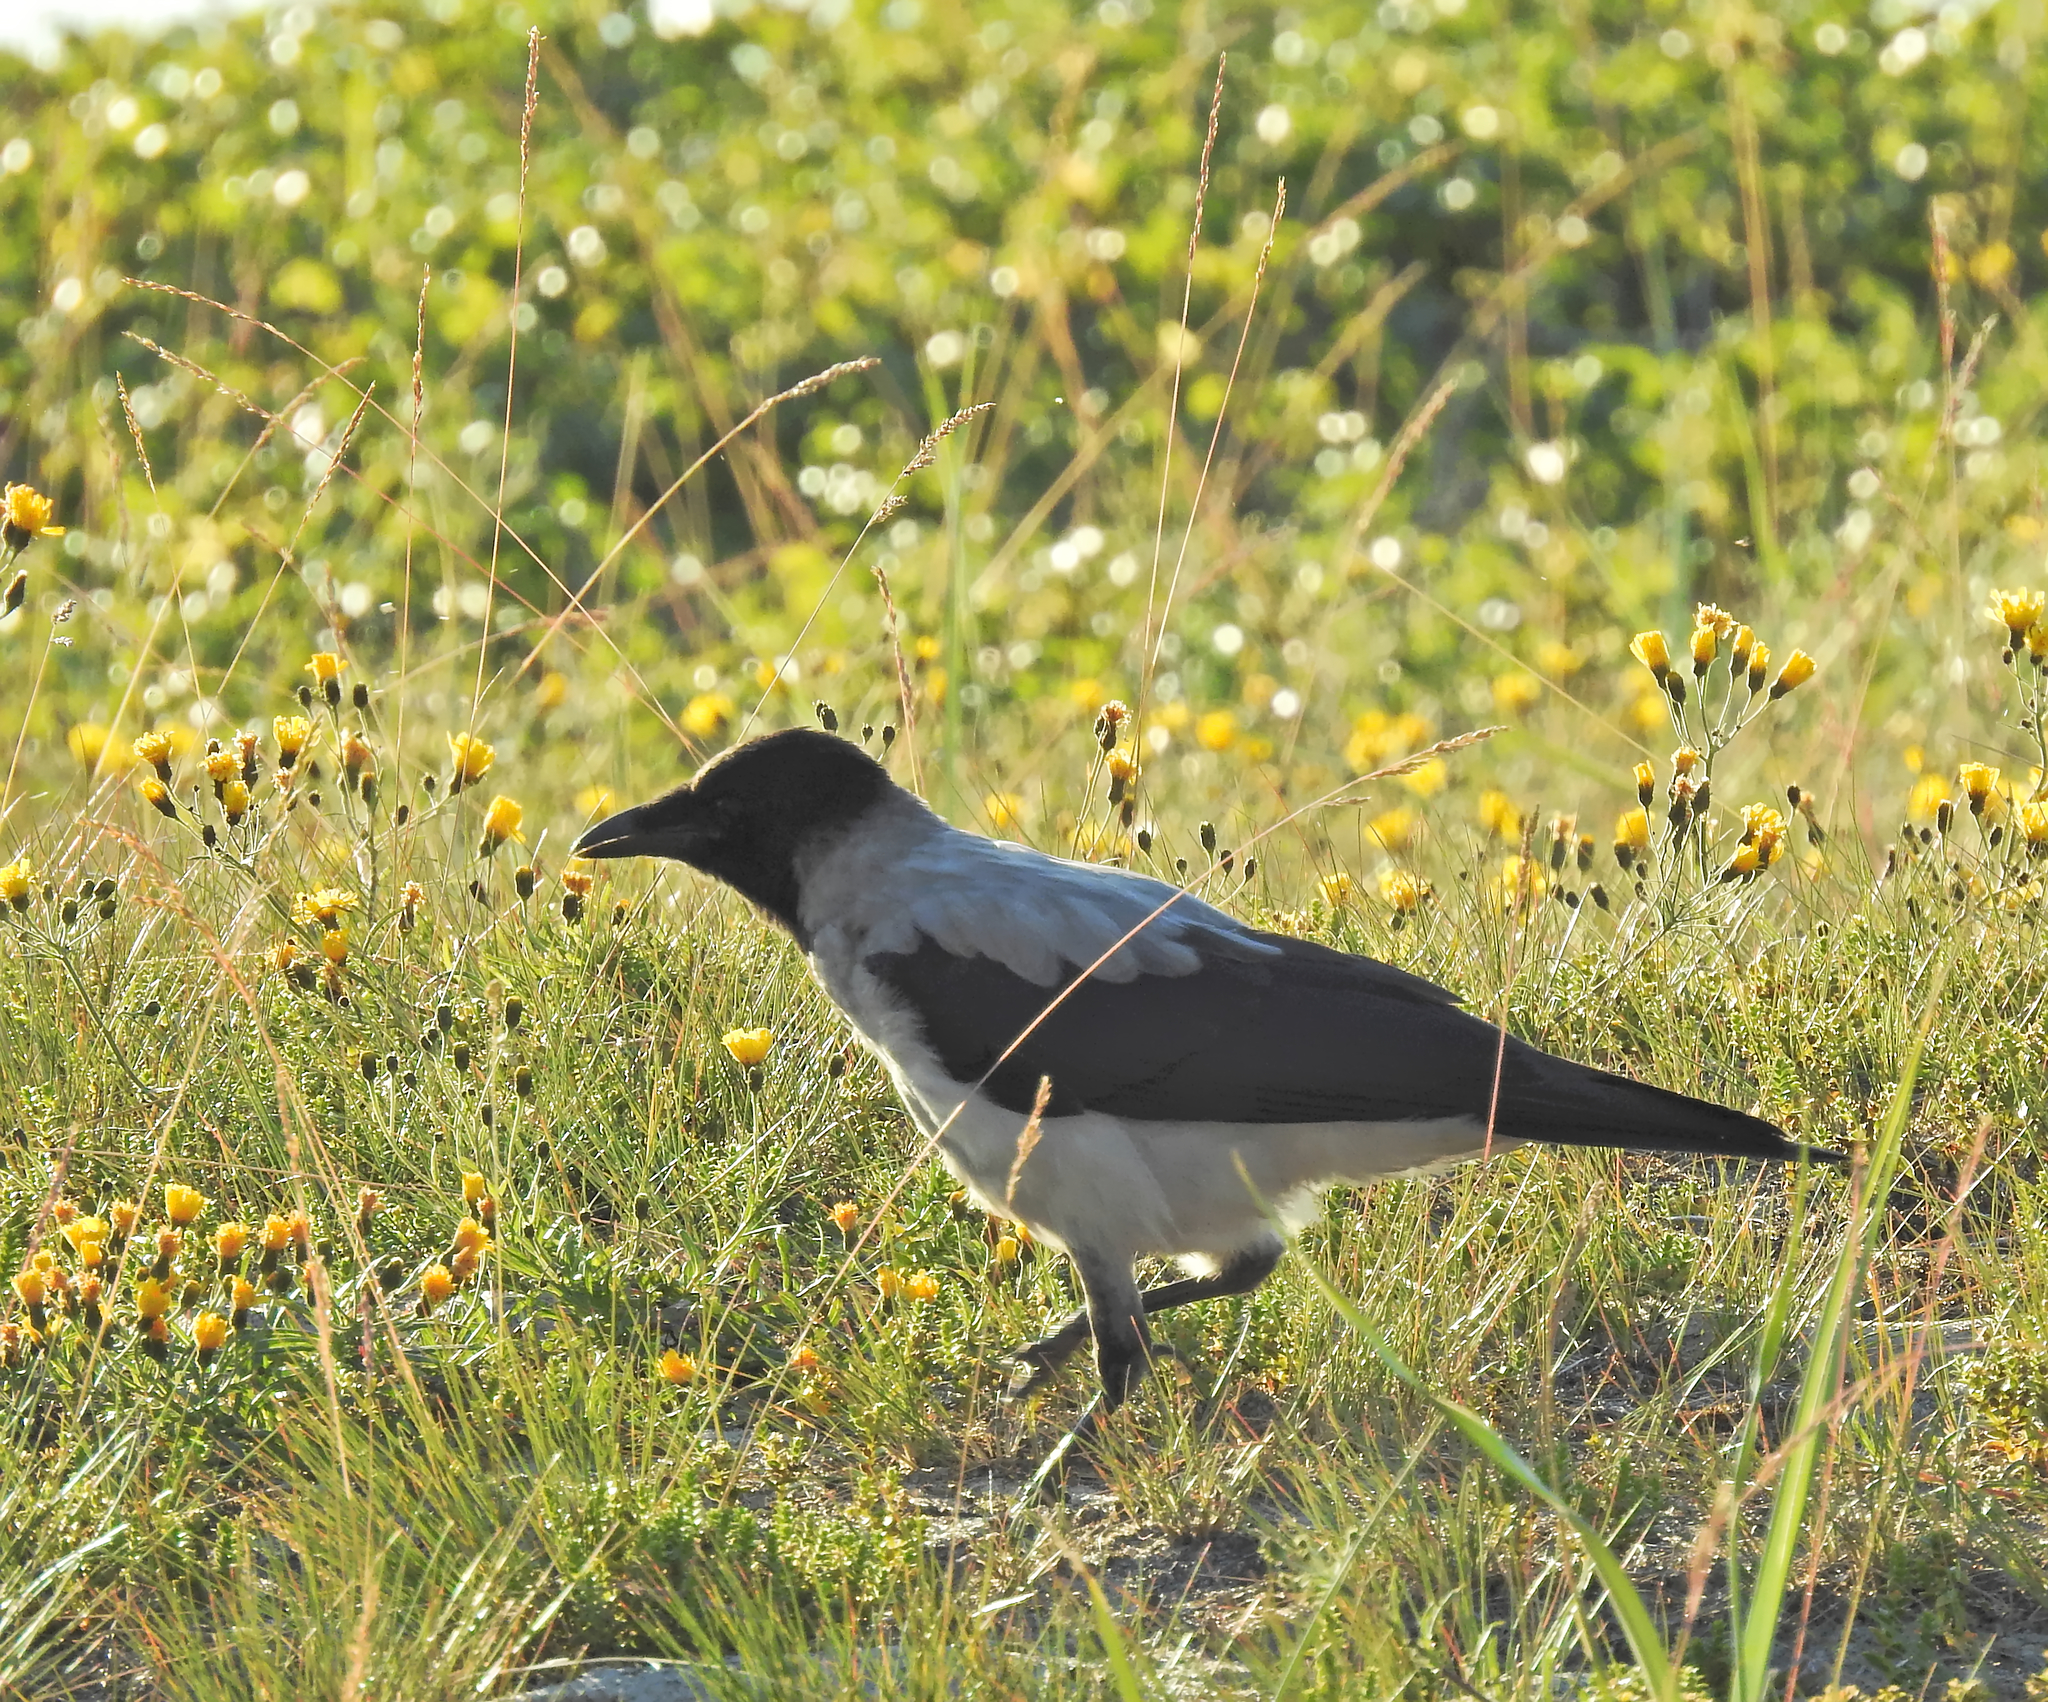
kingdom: Animalia
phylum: Chordata
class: Aves
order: Passeriformes
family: Corvidae
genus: Corvus
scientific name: Corvus cornix
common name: Hooded crow
